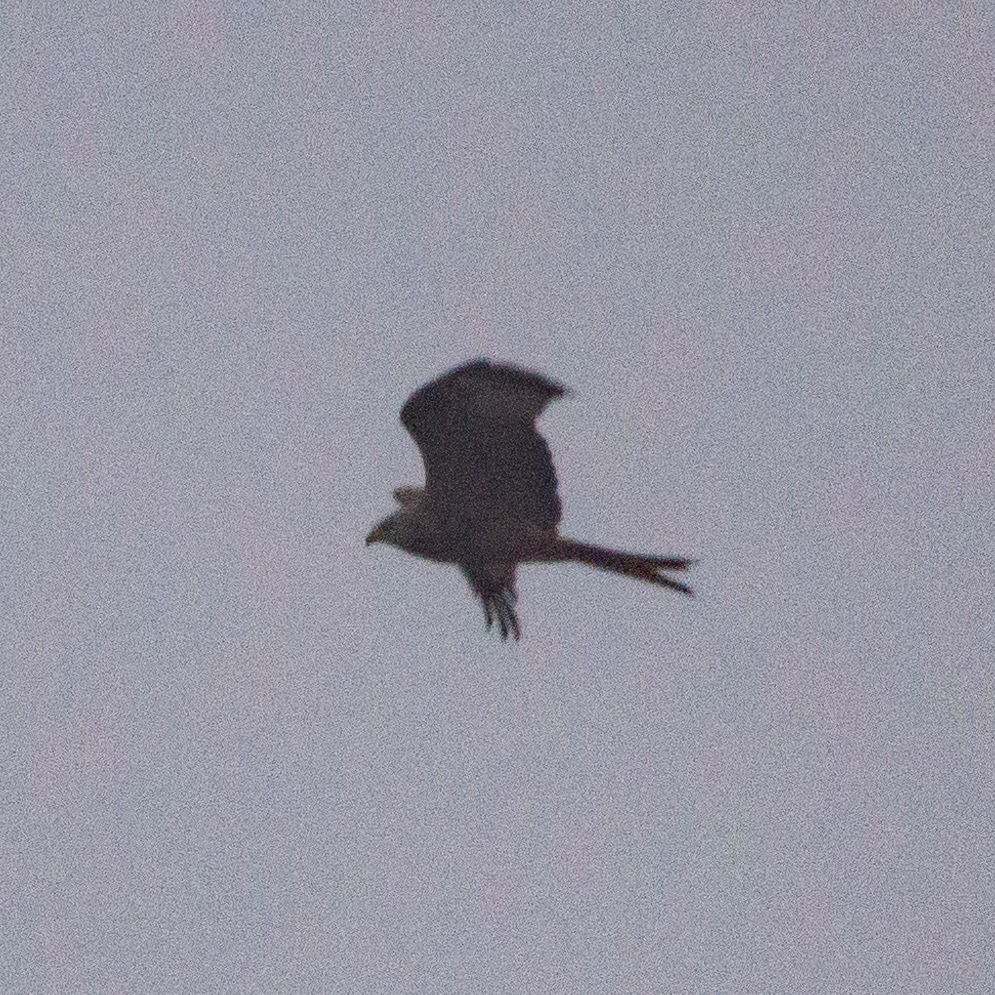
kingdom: Animalia
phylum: Chordata
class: Aves
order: Accipitriformes
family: Accipitridae
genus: Milvus
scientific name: Milvus milvus
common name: Red kite
